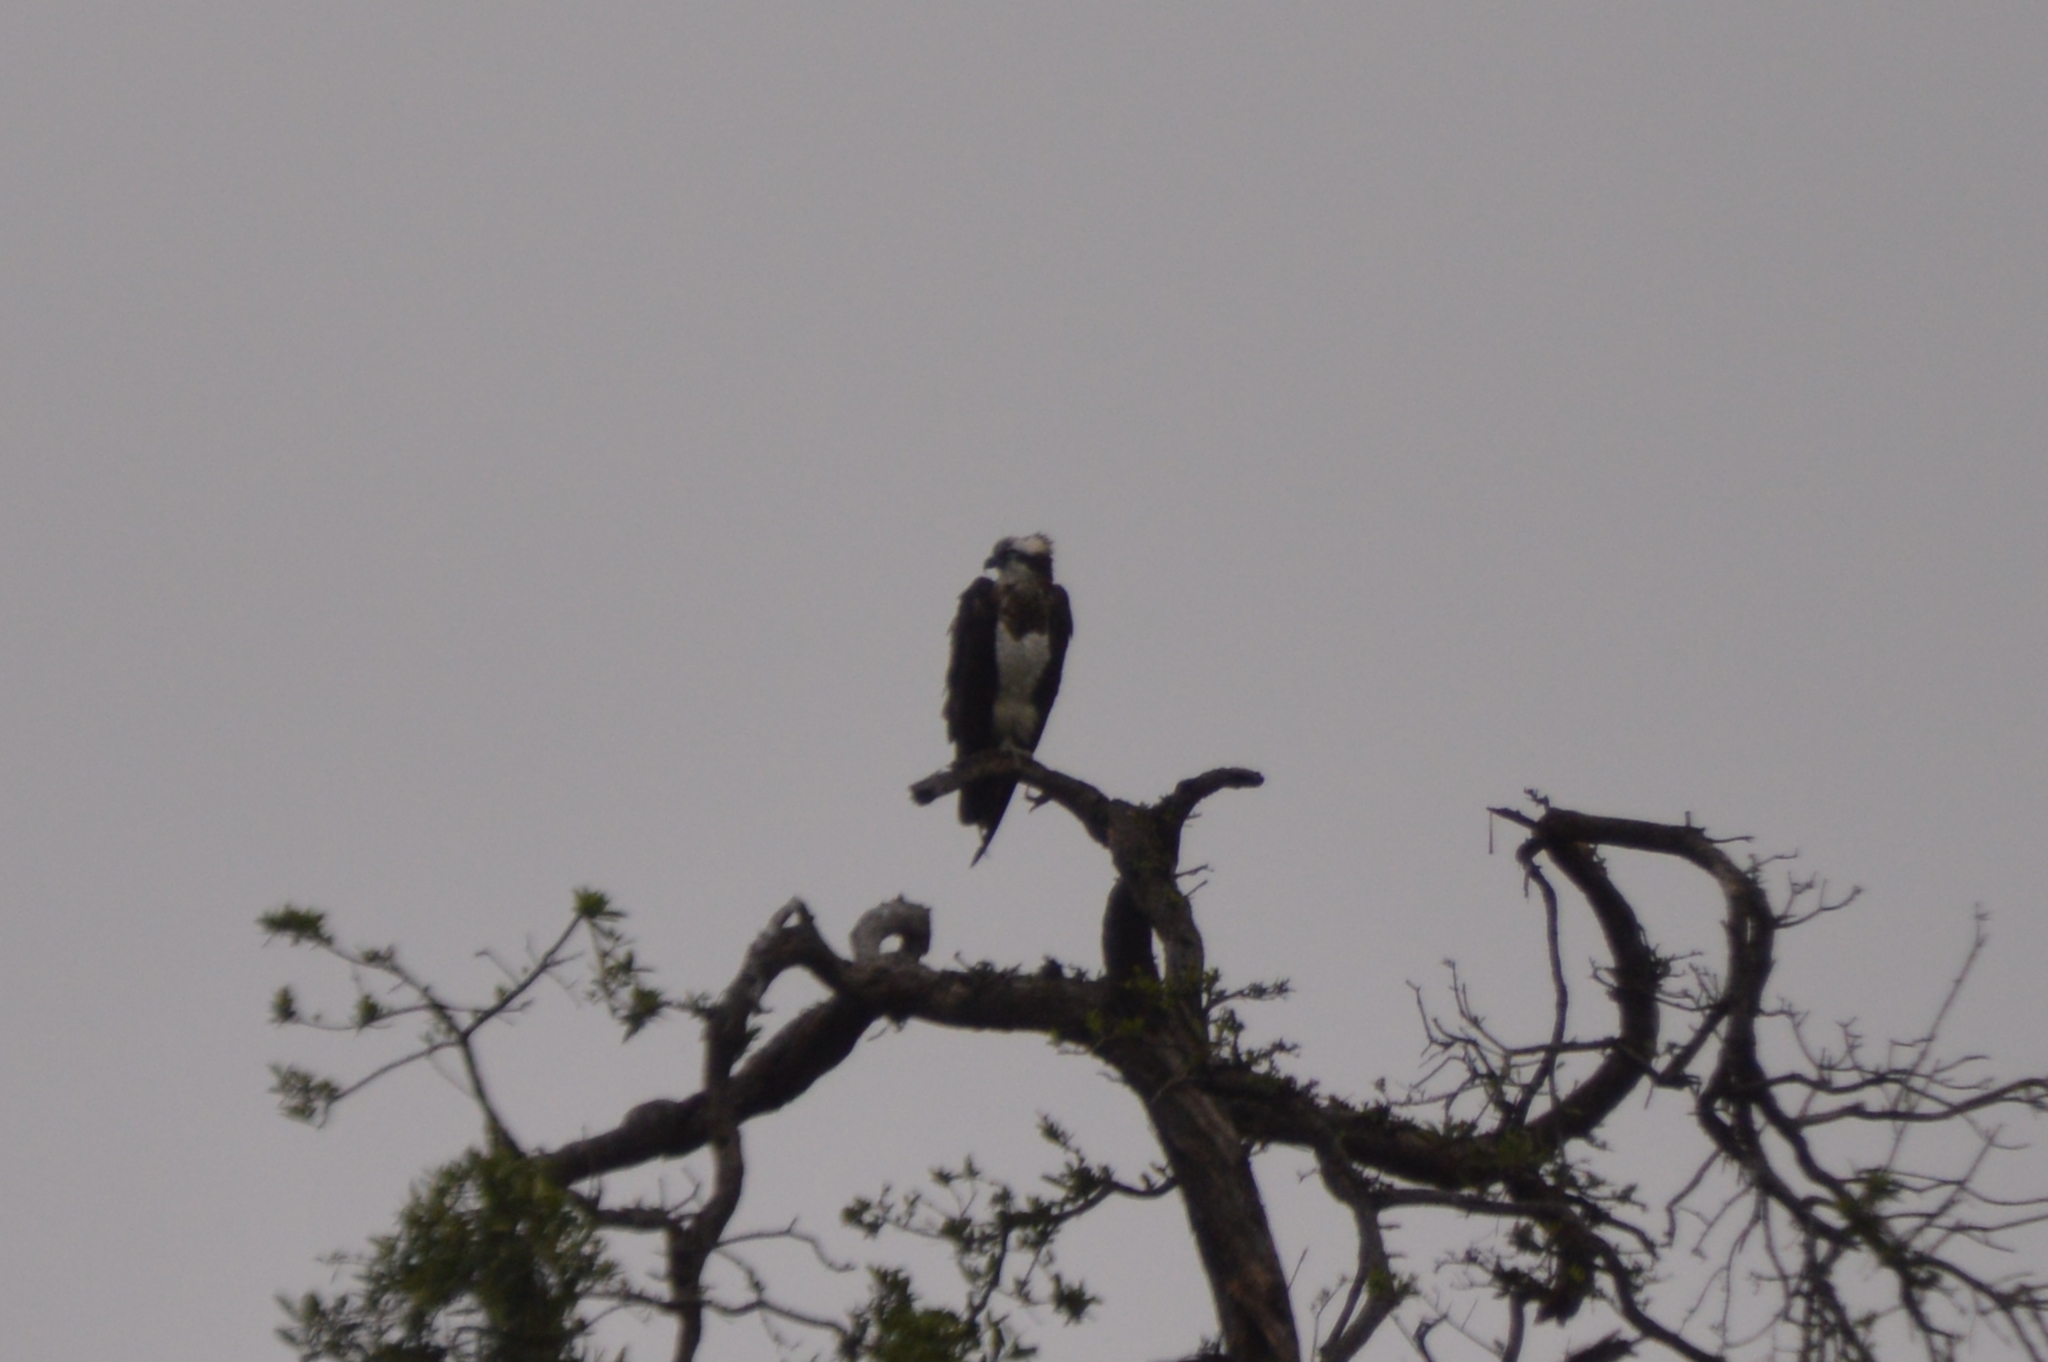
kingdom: Animalia
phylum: Chordata
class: Aves
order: Accipitriformes
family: Pandionidae
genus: Pandion
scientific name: Pandion haliaetus
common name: Osprey
